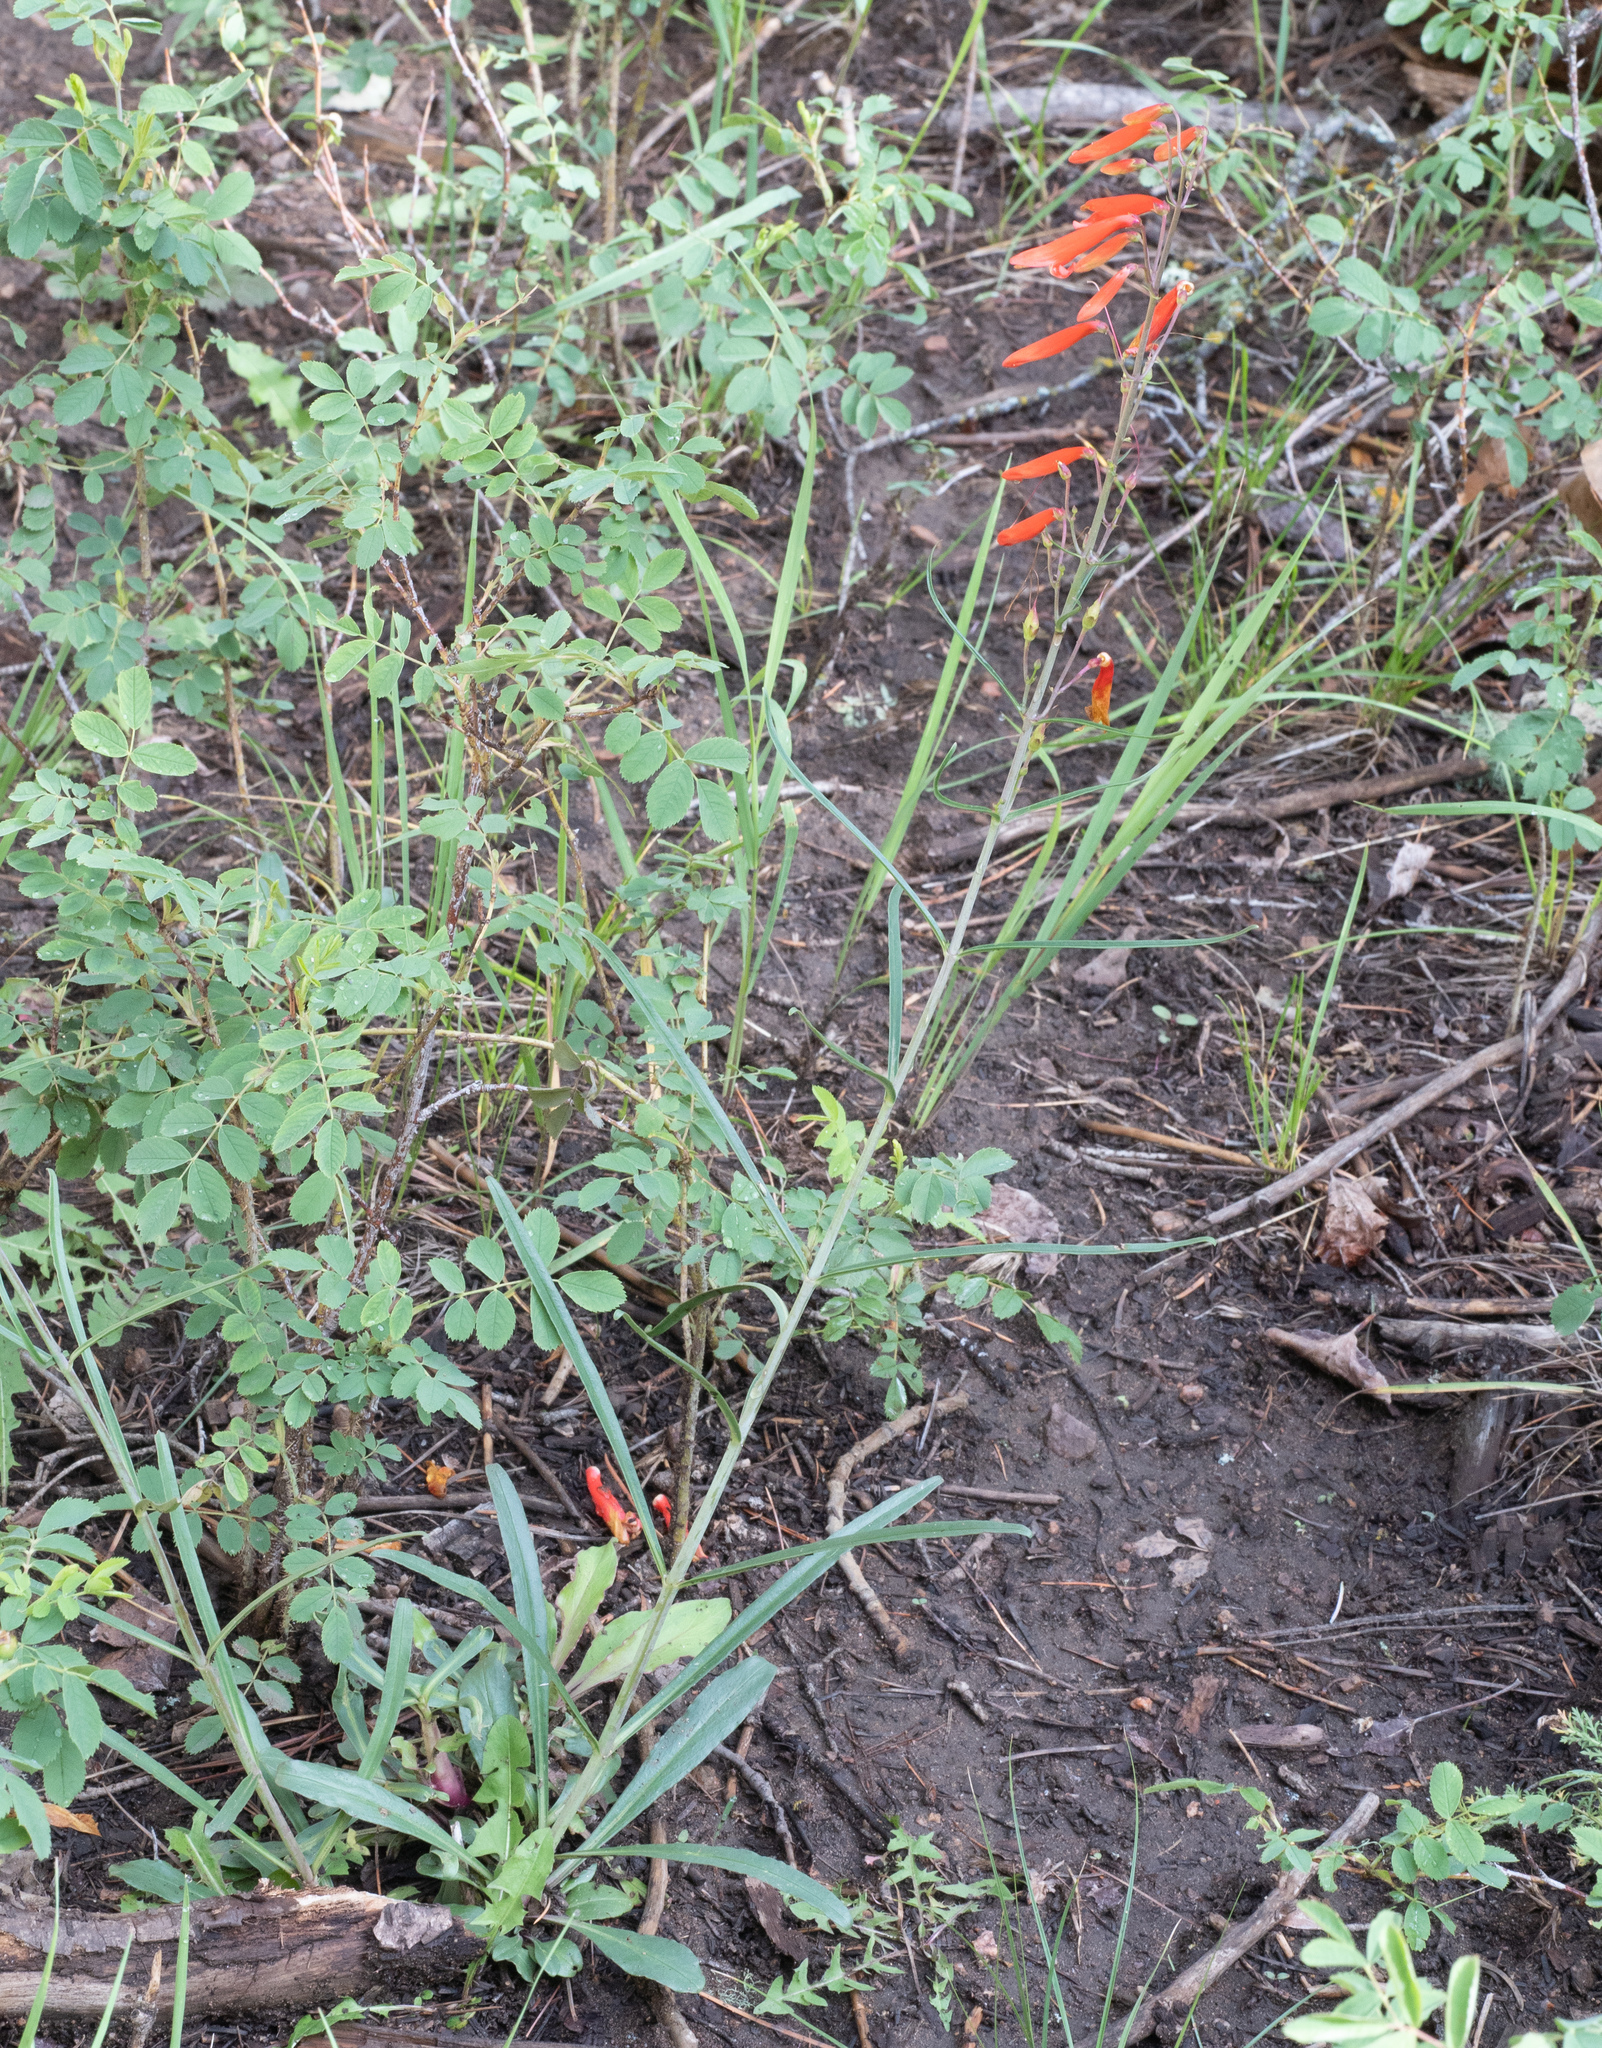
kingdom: Plantae
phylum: Tracheophyta
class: Magnoliopsida
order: Lamiales
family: Plantaginaceae
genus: Penstemon
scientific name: Penstemon barbatus
